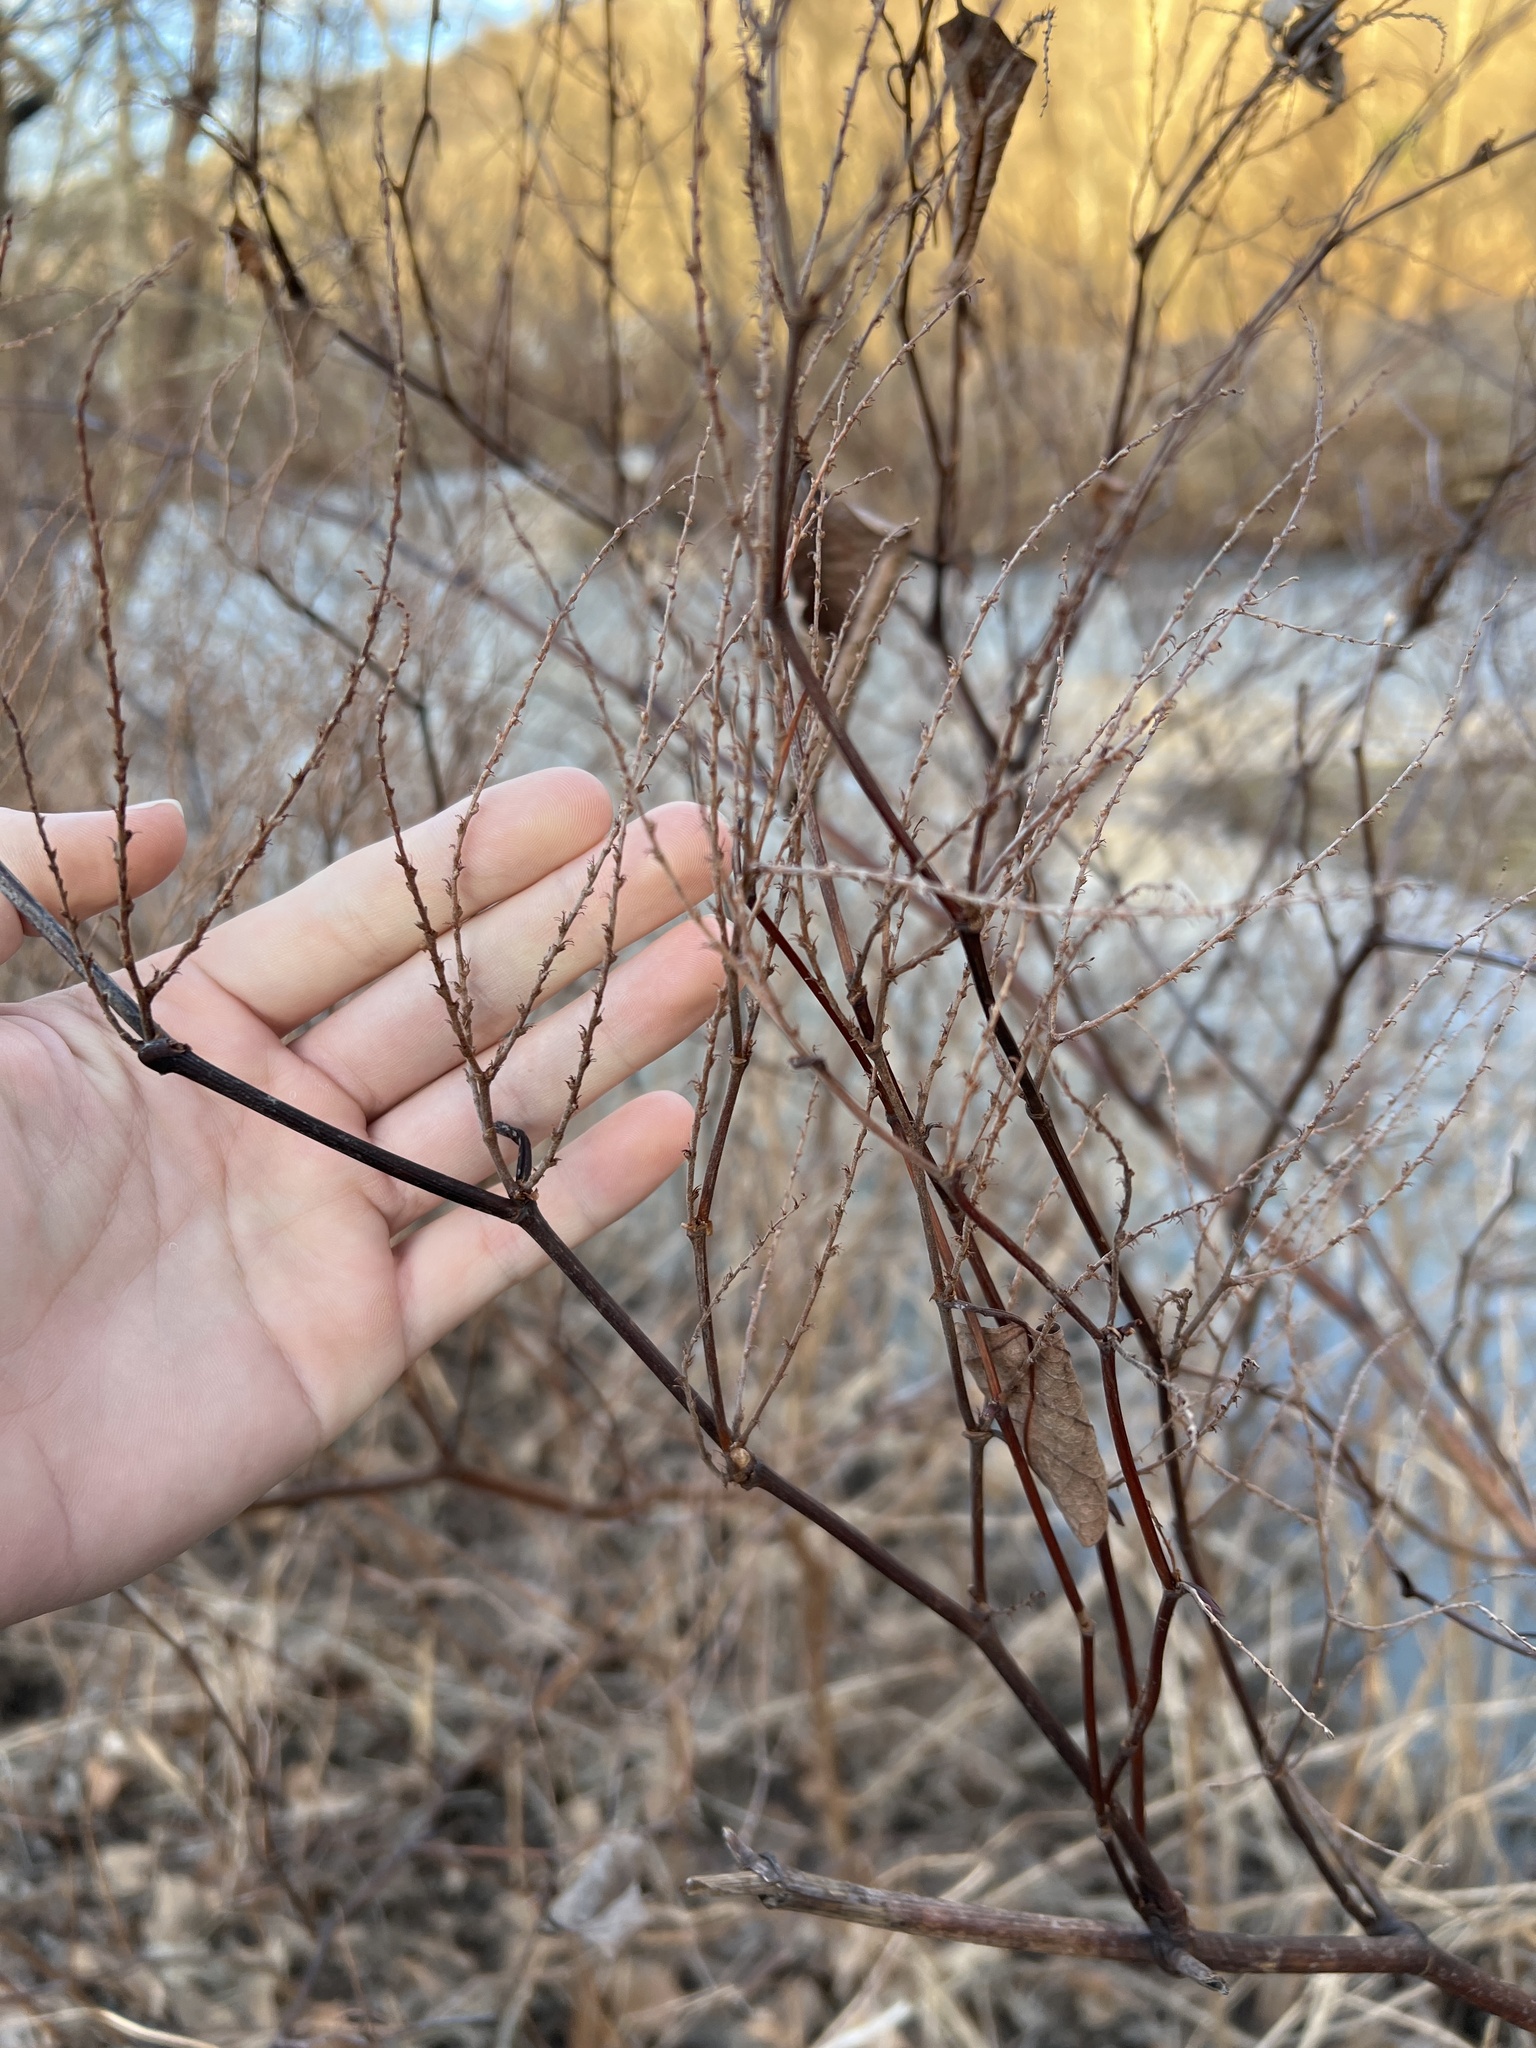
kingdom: Plantae
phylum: Tracheophyta
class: Magnoliopsida
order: Caryophyllales
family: Polygonaceae
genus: Reynoutria
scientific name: Reynoutria japonica
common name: Japanese knotweed
